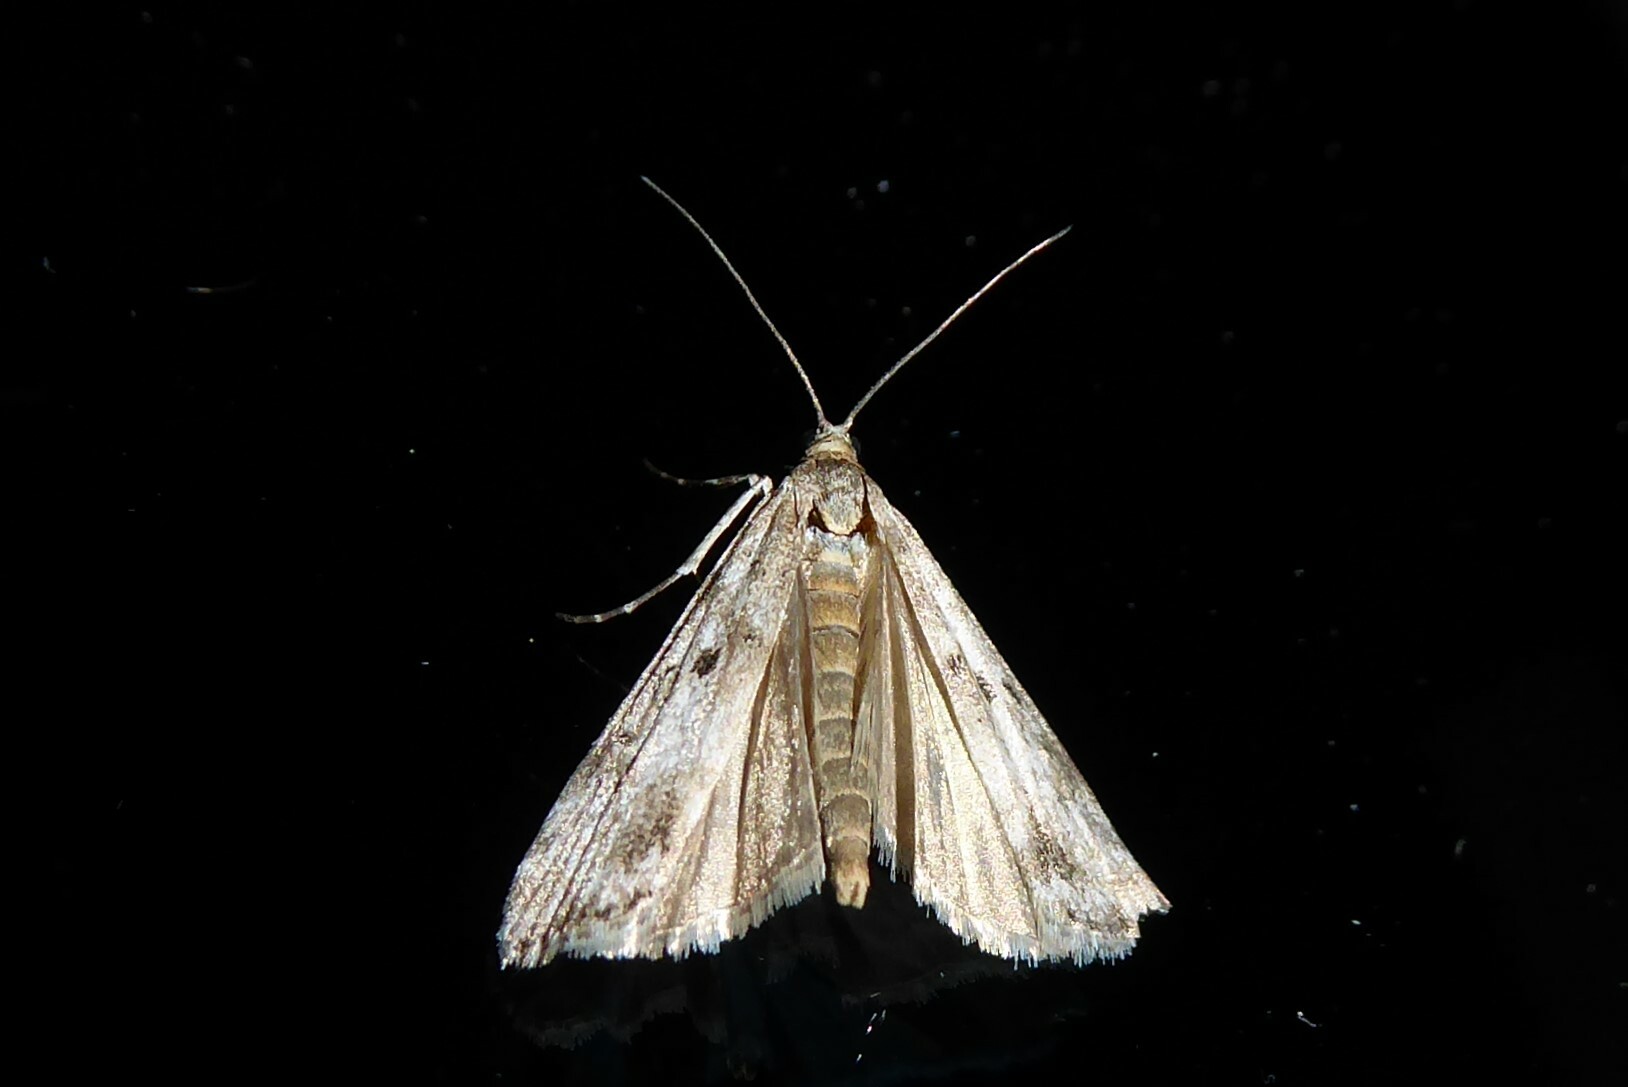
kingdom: Animalia
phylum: Arthropoda
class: Insecta
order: Lepidoptera
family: Crambidae
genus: Eudonia
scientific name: Eudonia leptalea
